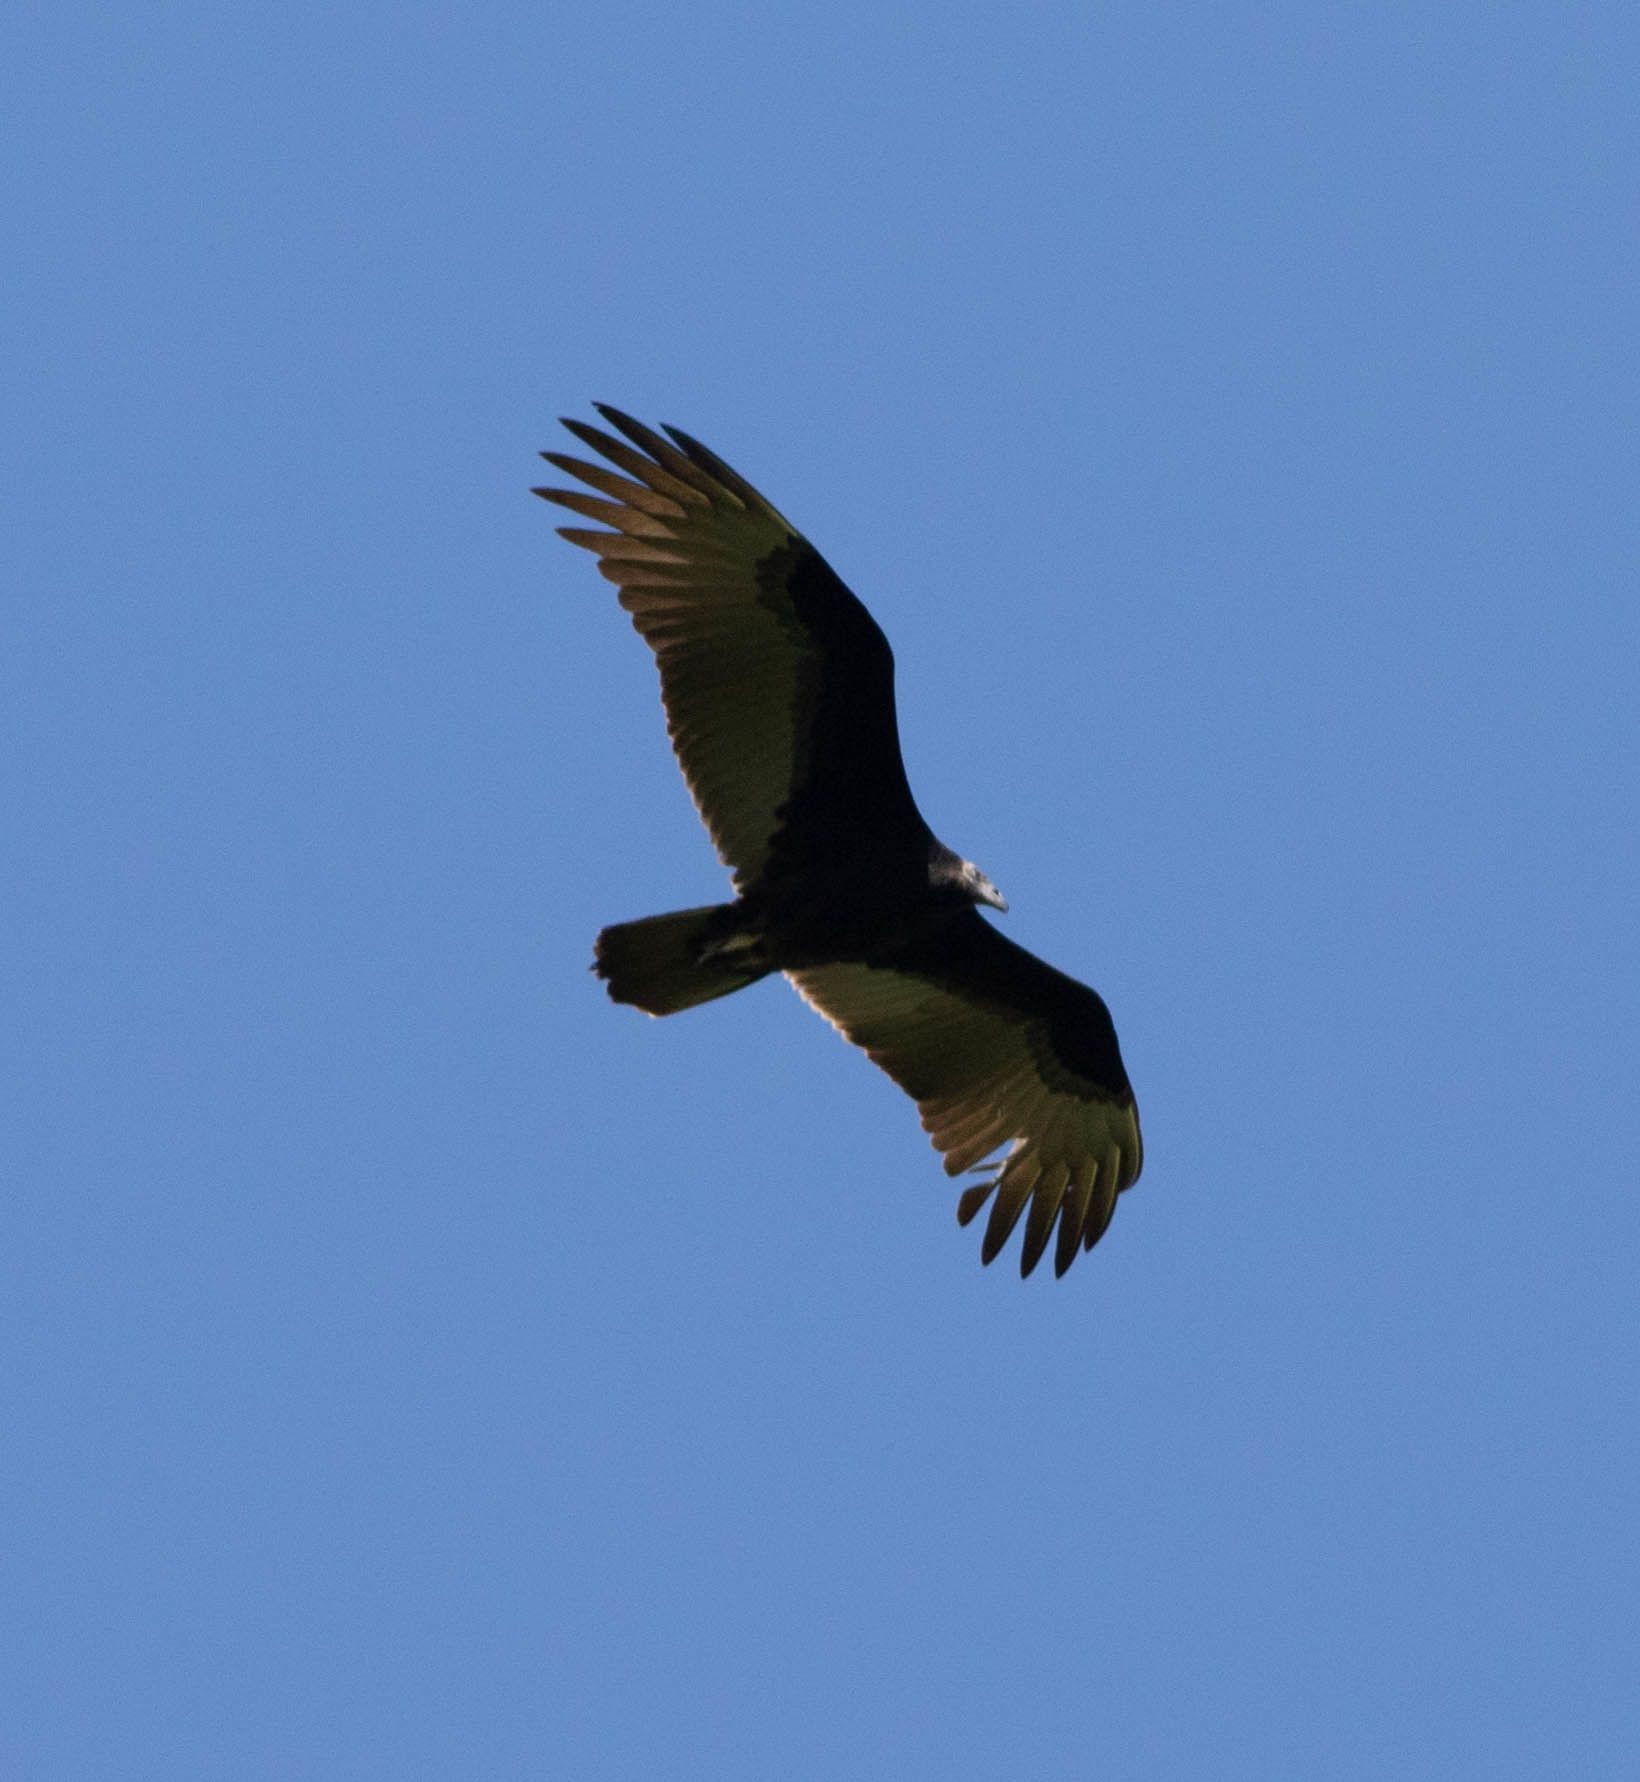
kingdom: Animalia
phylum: Chordata
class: Aves
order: Accipitriformes
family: Cathartidae
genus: Cathartes
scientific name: Cathartes aura
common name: Turkey vulture
